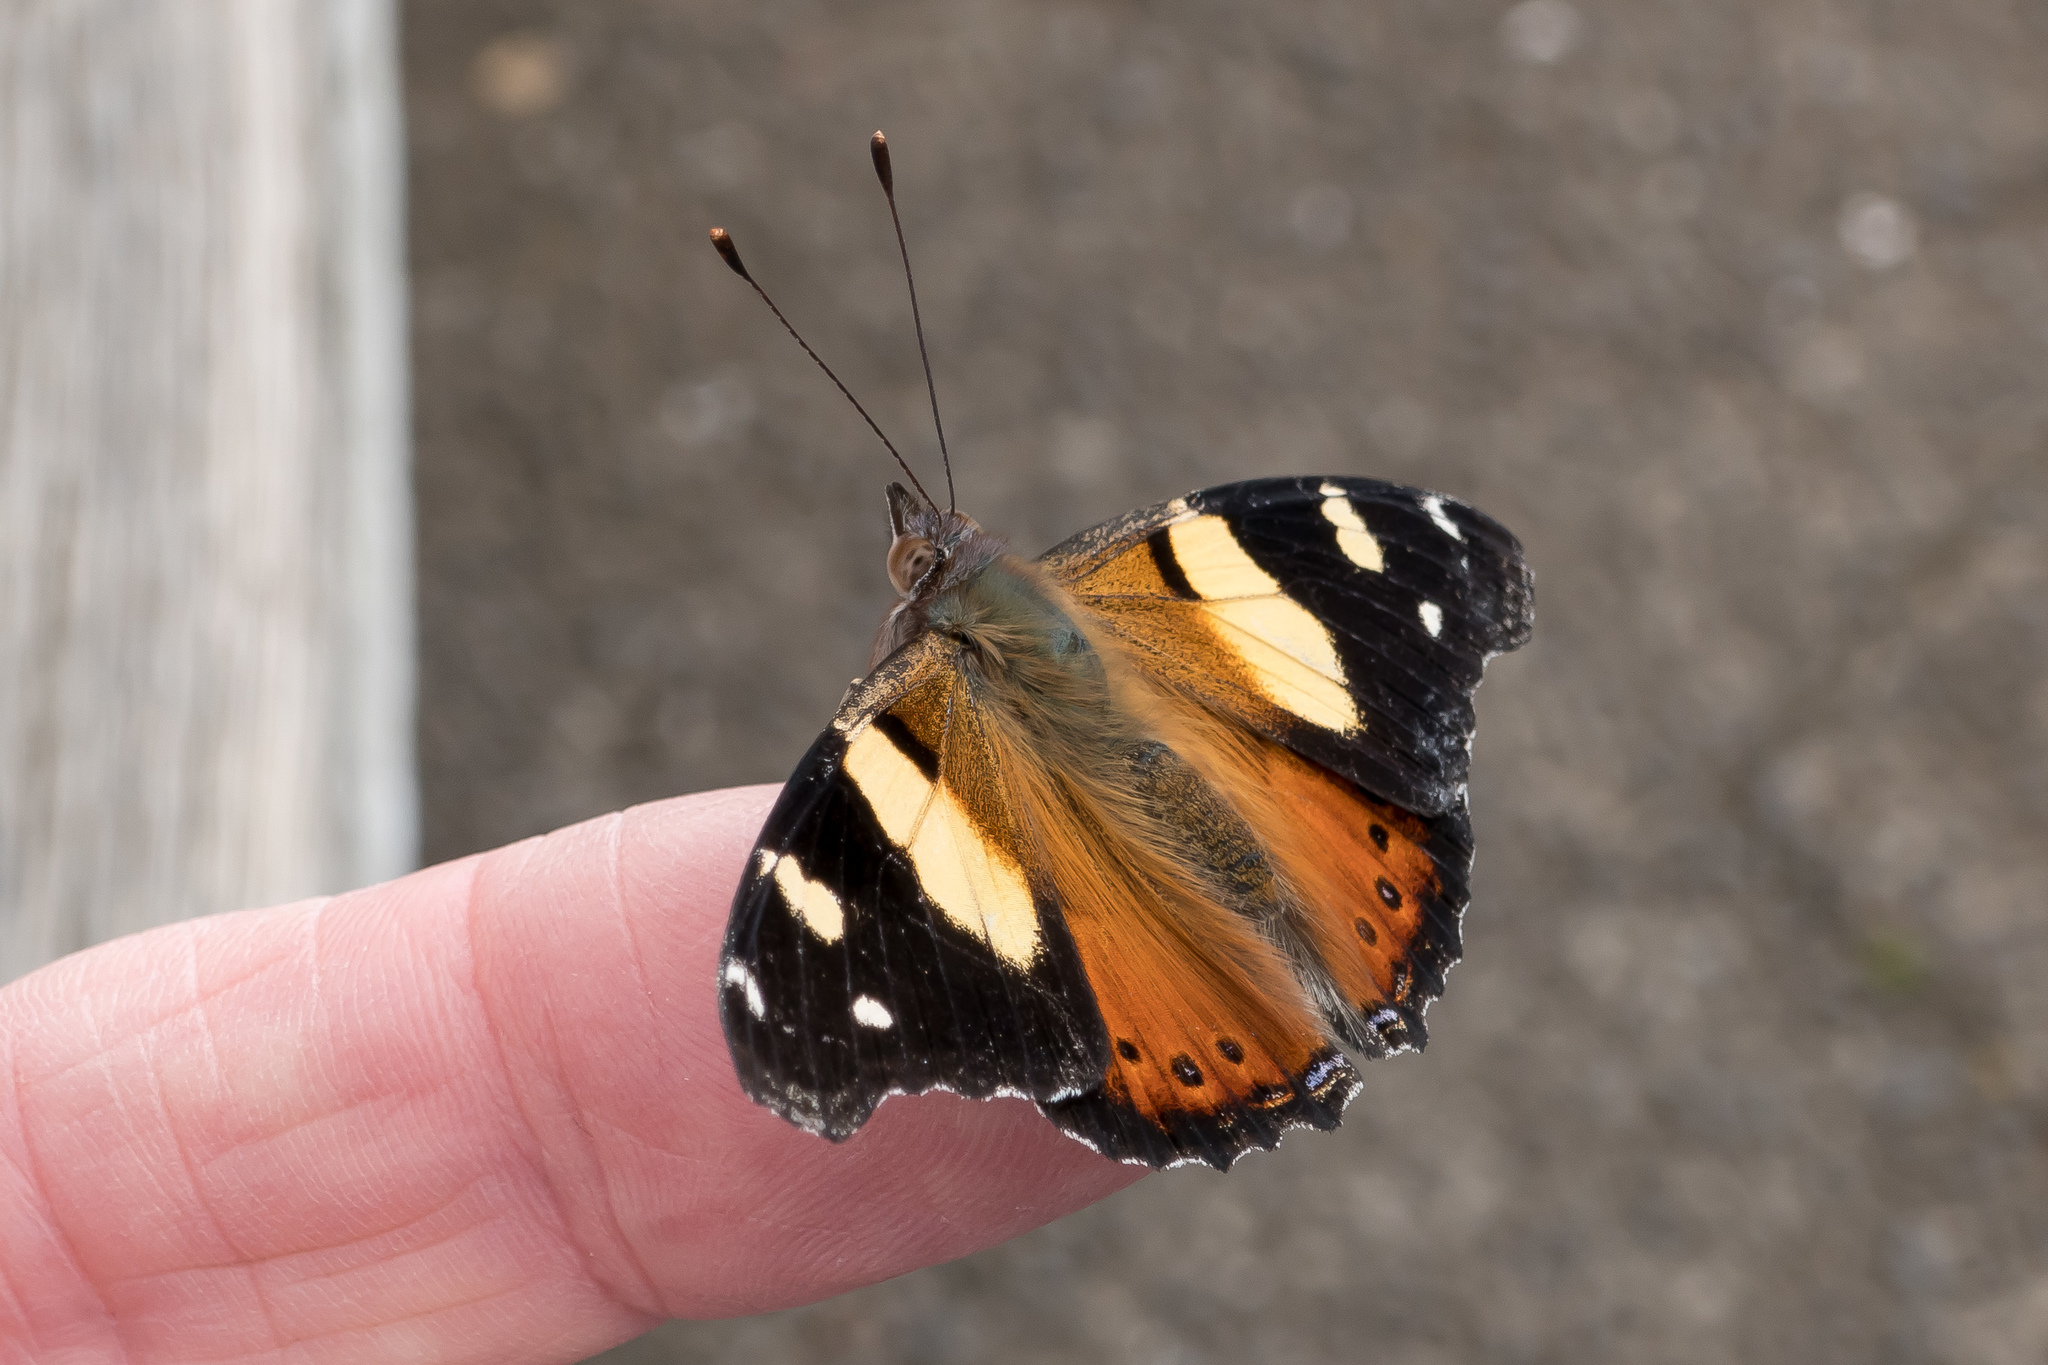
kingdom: Animalia
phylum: Arthropoda
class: Insecta
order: Lepidoptera
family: Nymphalidae
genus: Vanessa
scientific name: Vanessa itea
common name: Yellow admiral
